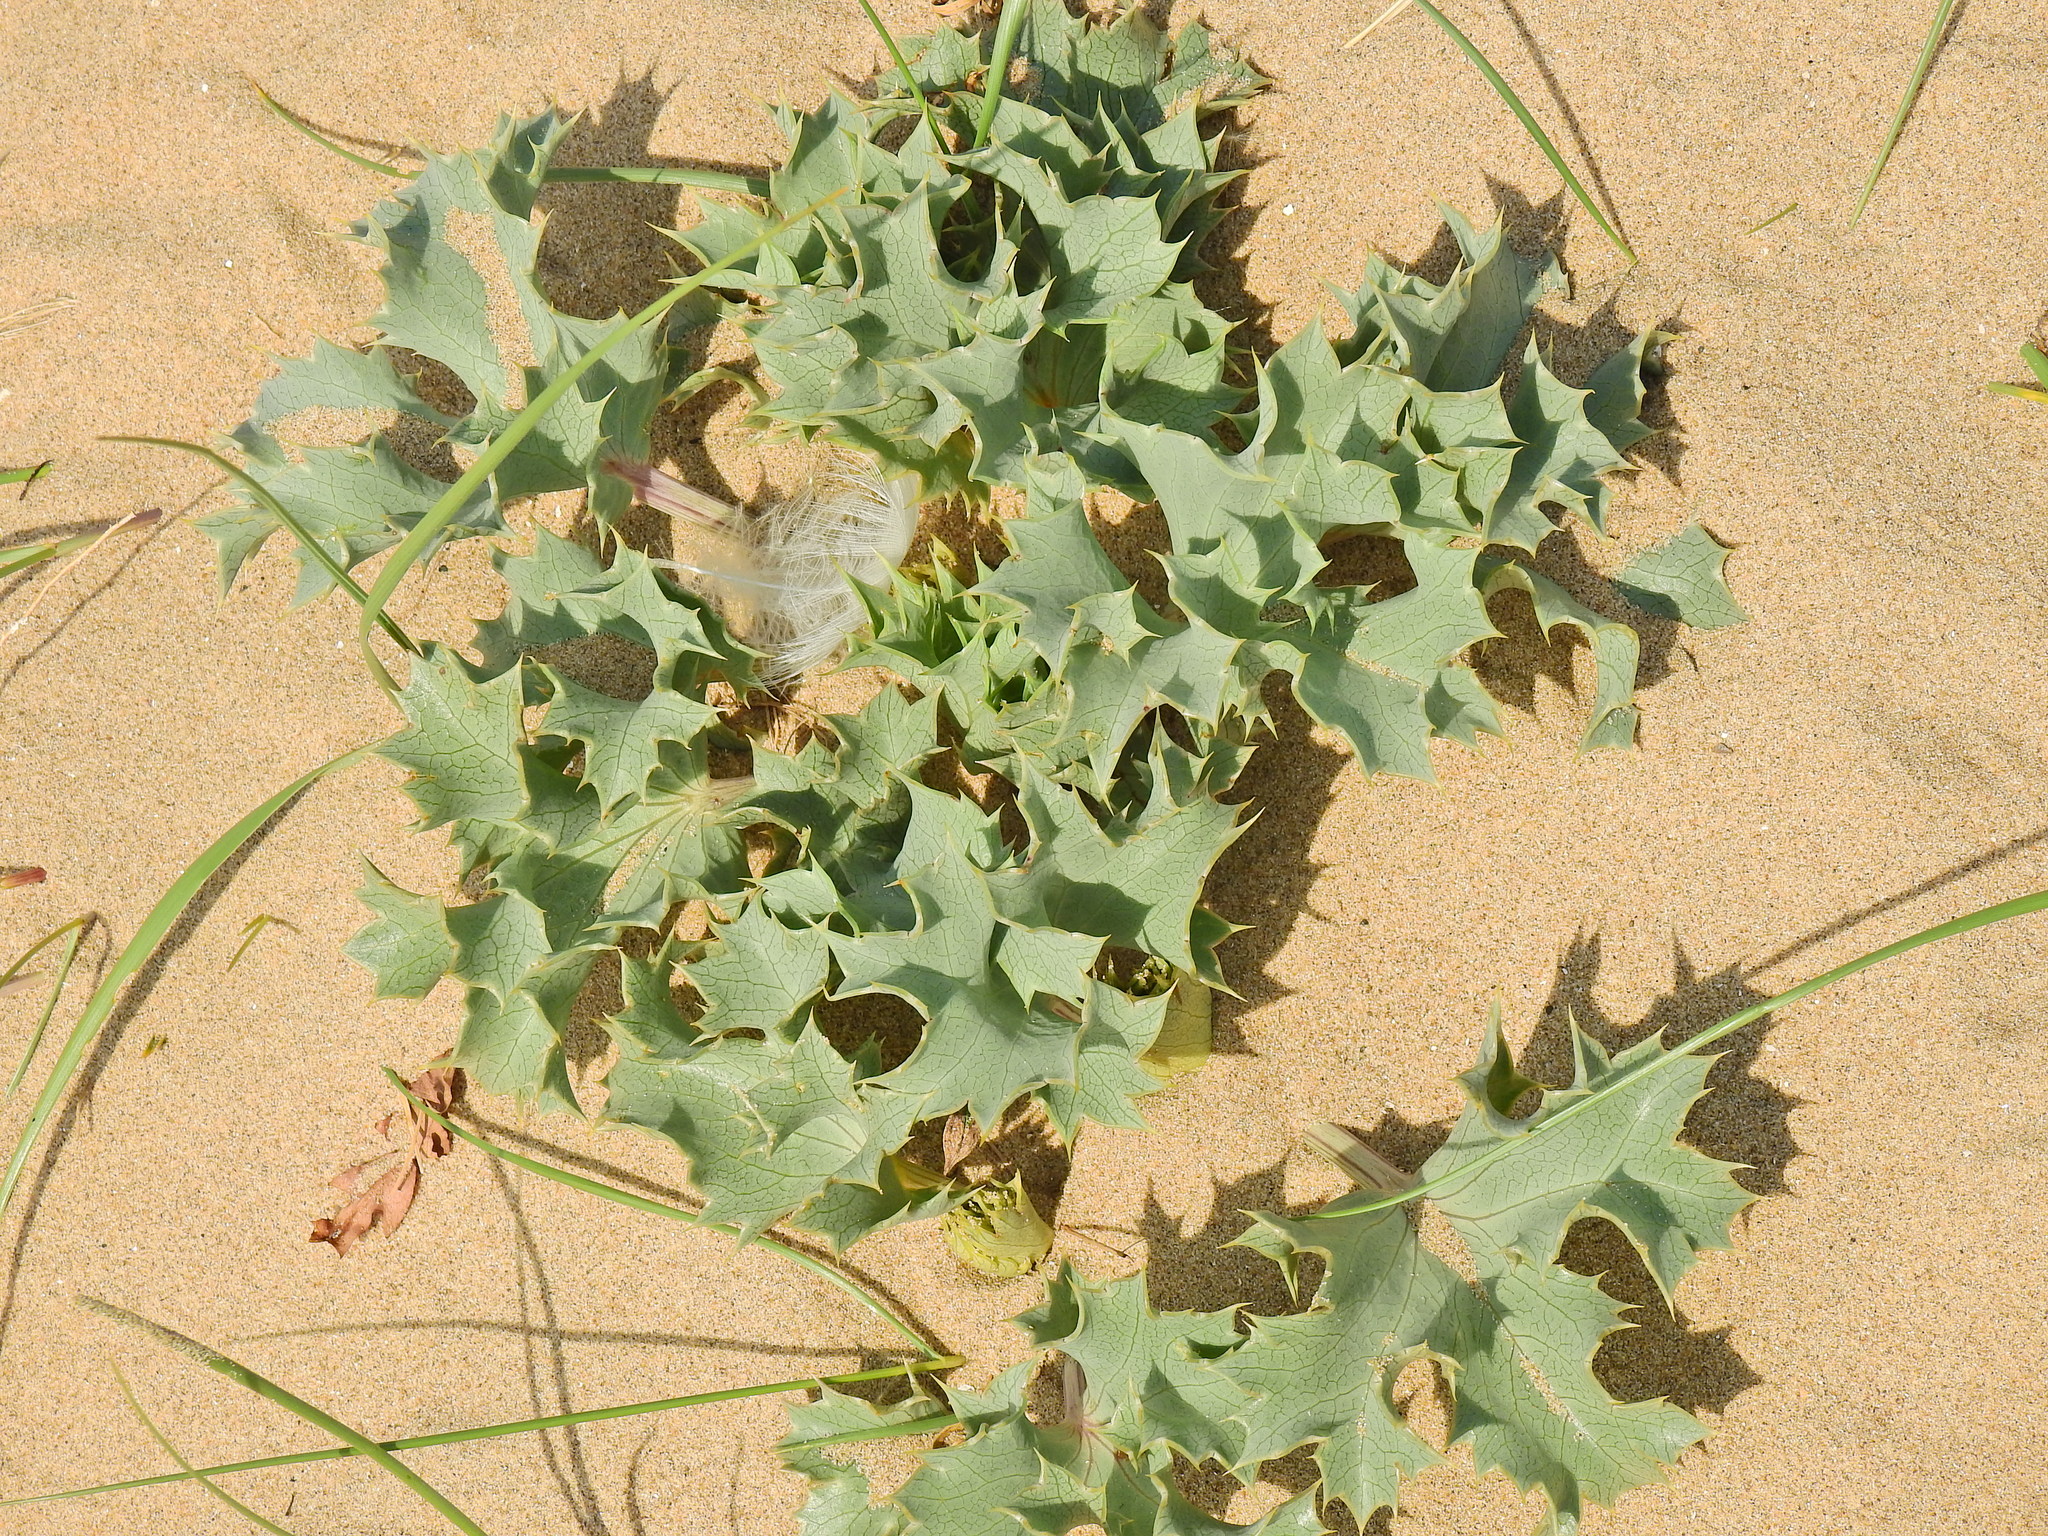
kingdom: Plantae
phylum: Tracheophyta
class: Magnoliopsida
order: Apiales
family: Apiaceae
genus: Eryngium
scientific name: Eryngium maritimum
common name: Sea-holly
